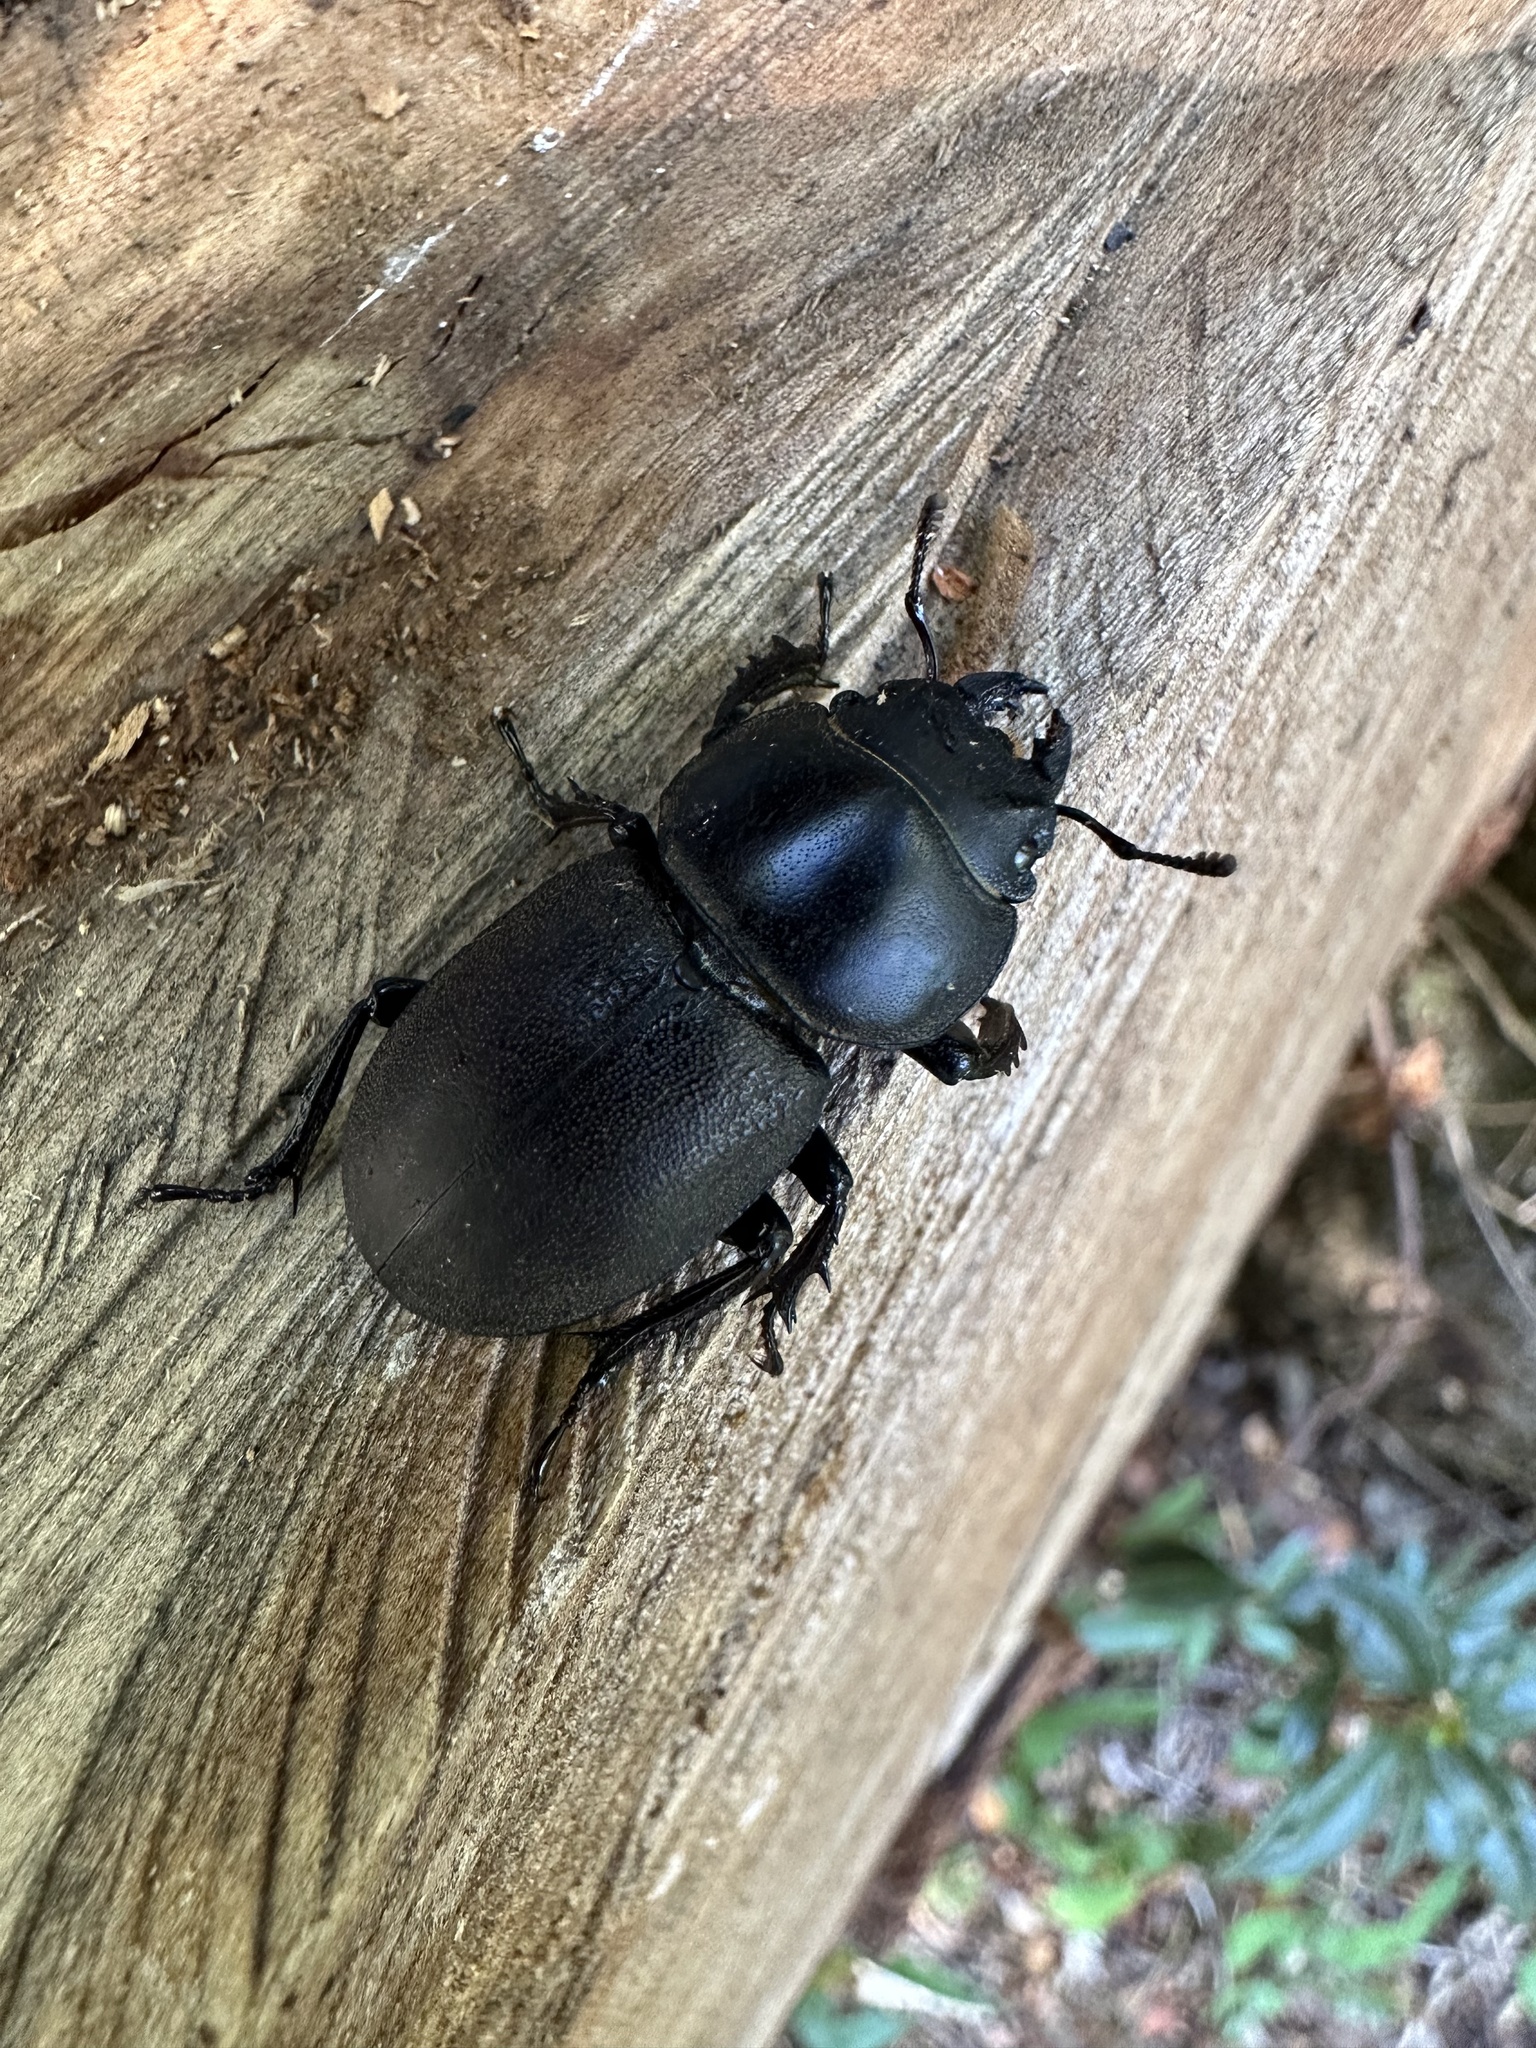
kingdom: Animalia
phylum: Arthropoda
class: Insecta
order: Coleoptera
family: Lucanidae
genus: Apterodorcus
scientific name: Apterodorcus bacchus
